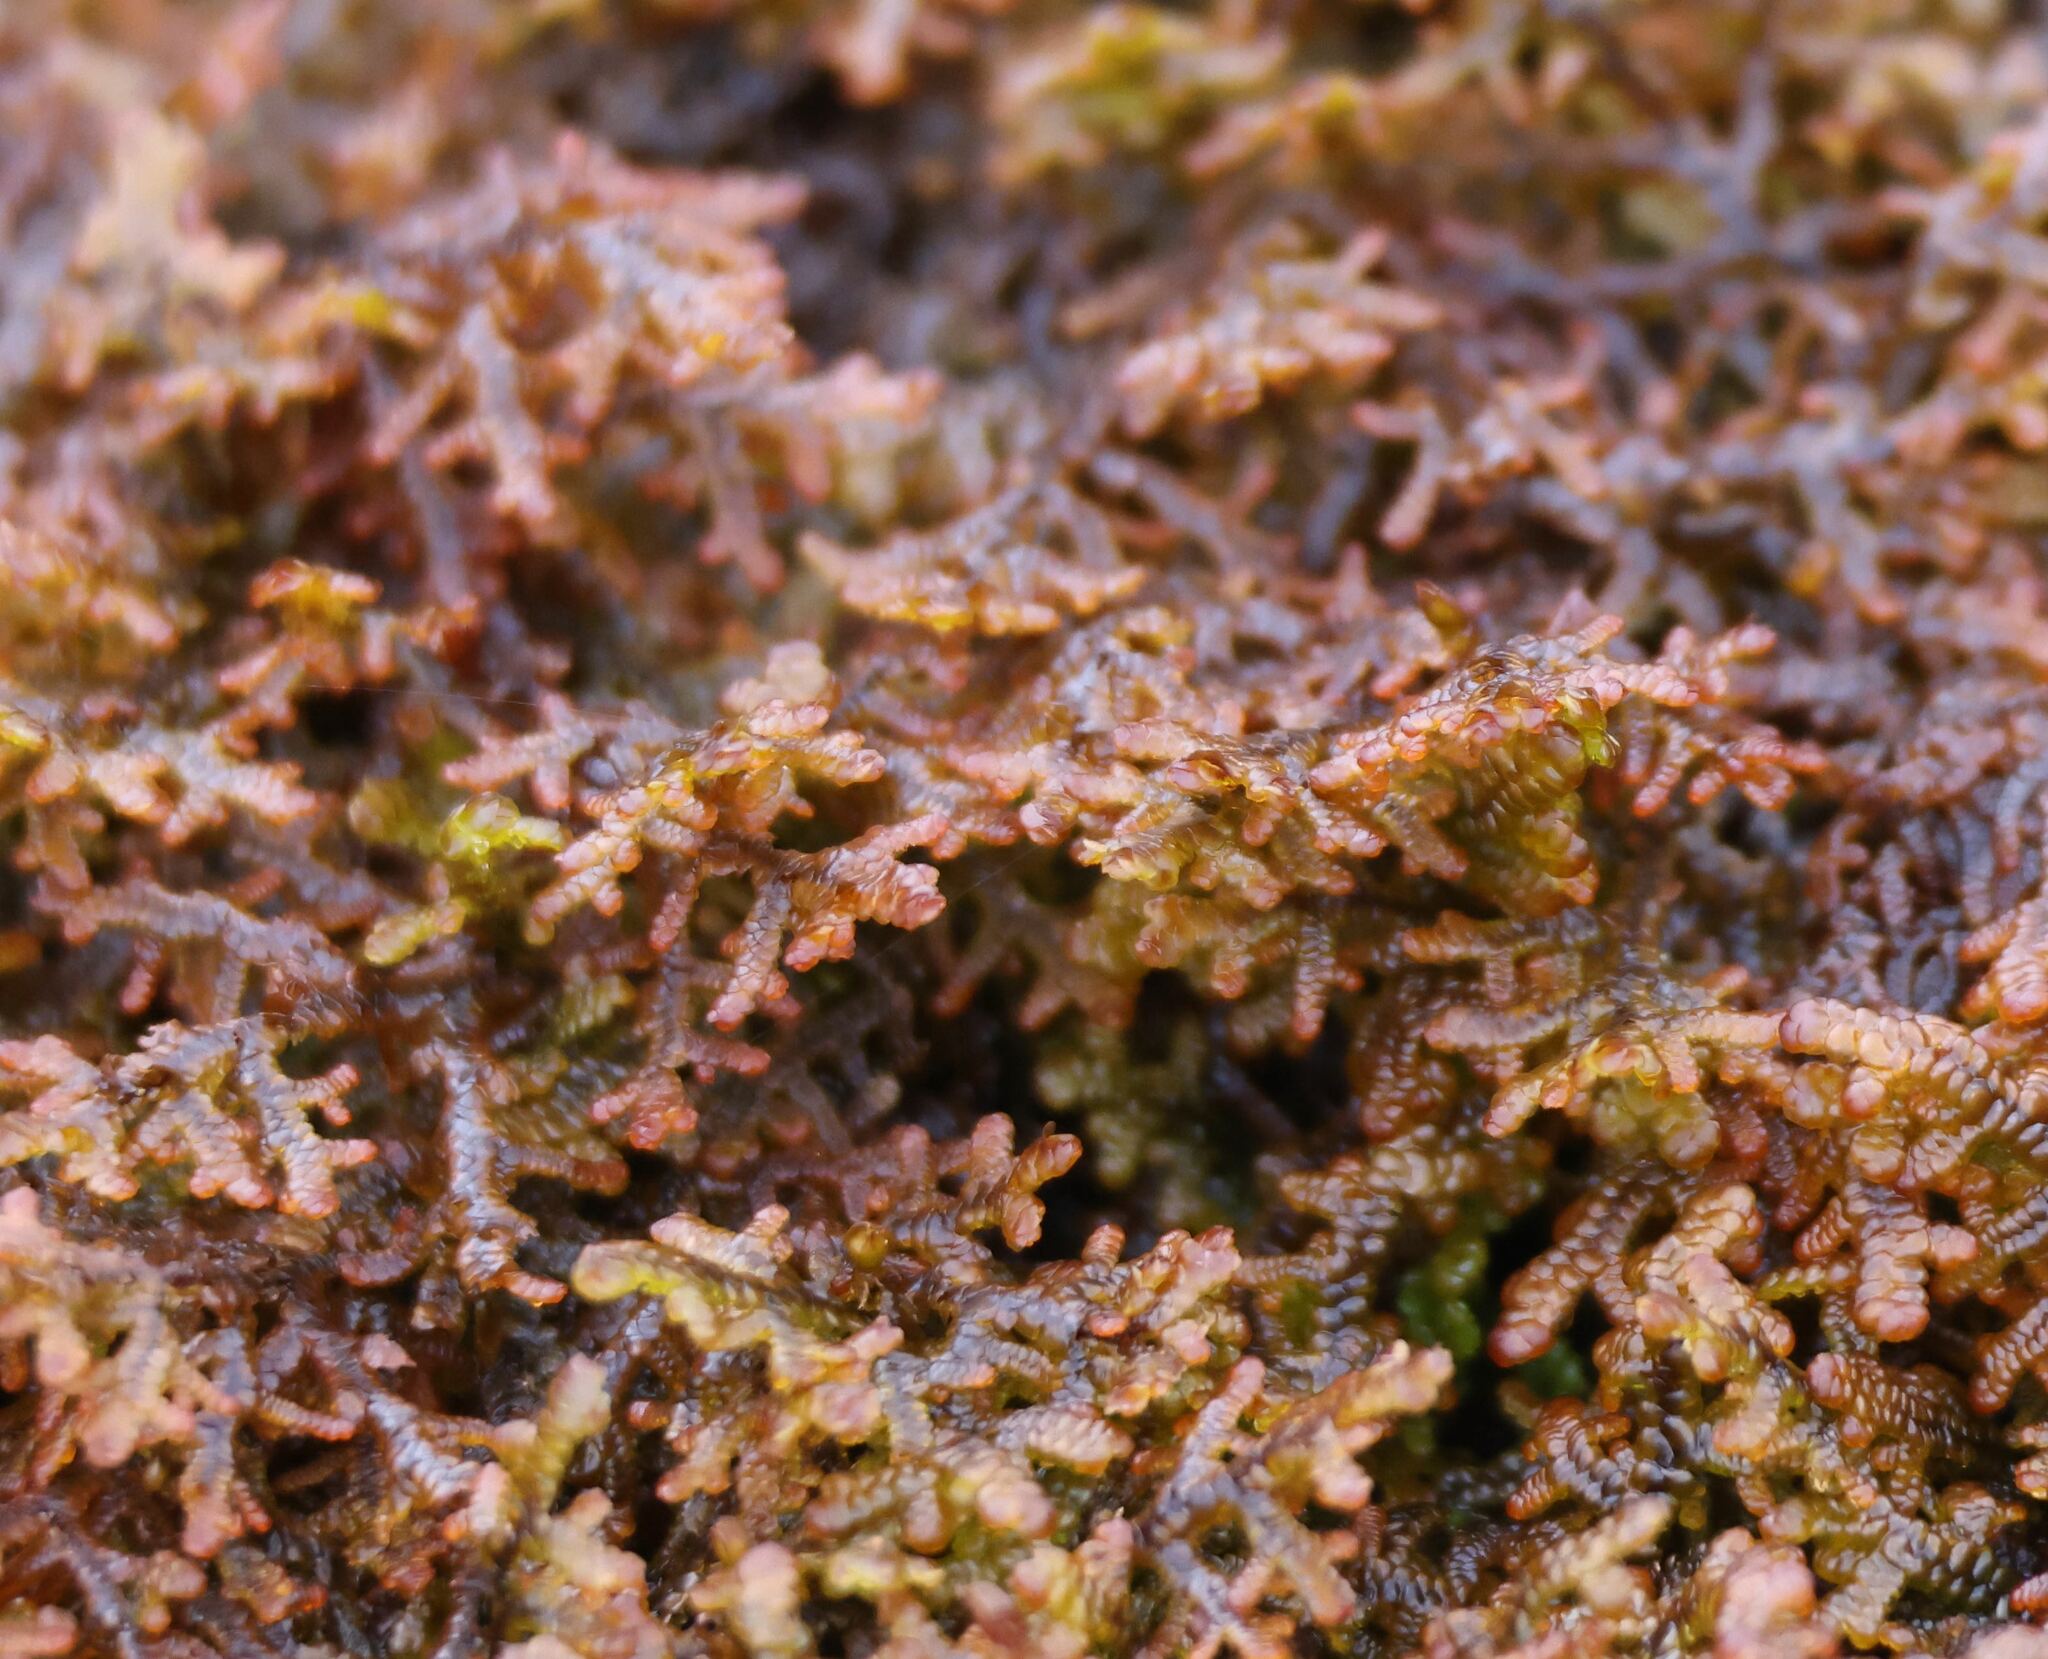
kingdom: Plantae
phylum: Marchantiophyta
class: Jungermanniopsida
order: Porellales
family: Frullaniaceae
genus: Frullania
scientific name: Frullania tamarisci
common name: Tamarisk scalewort
